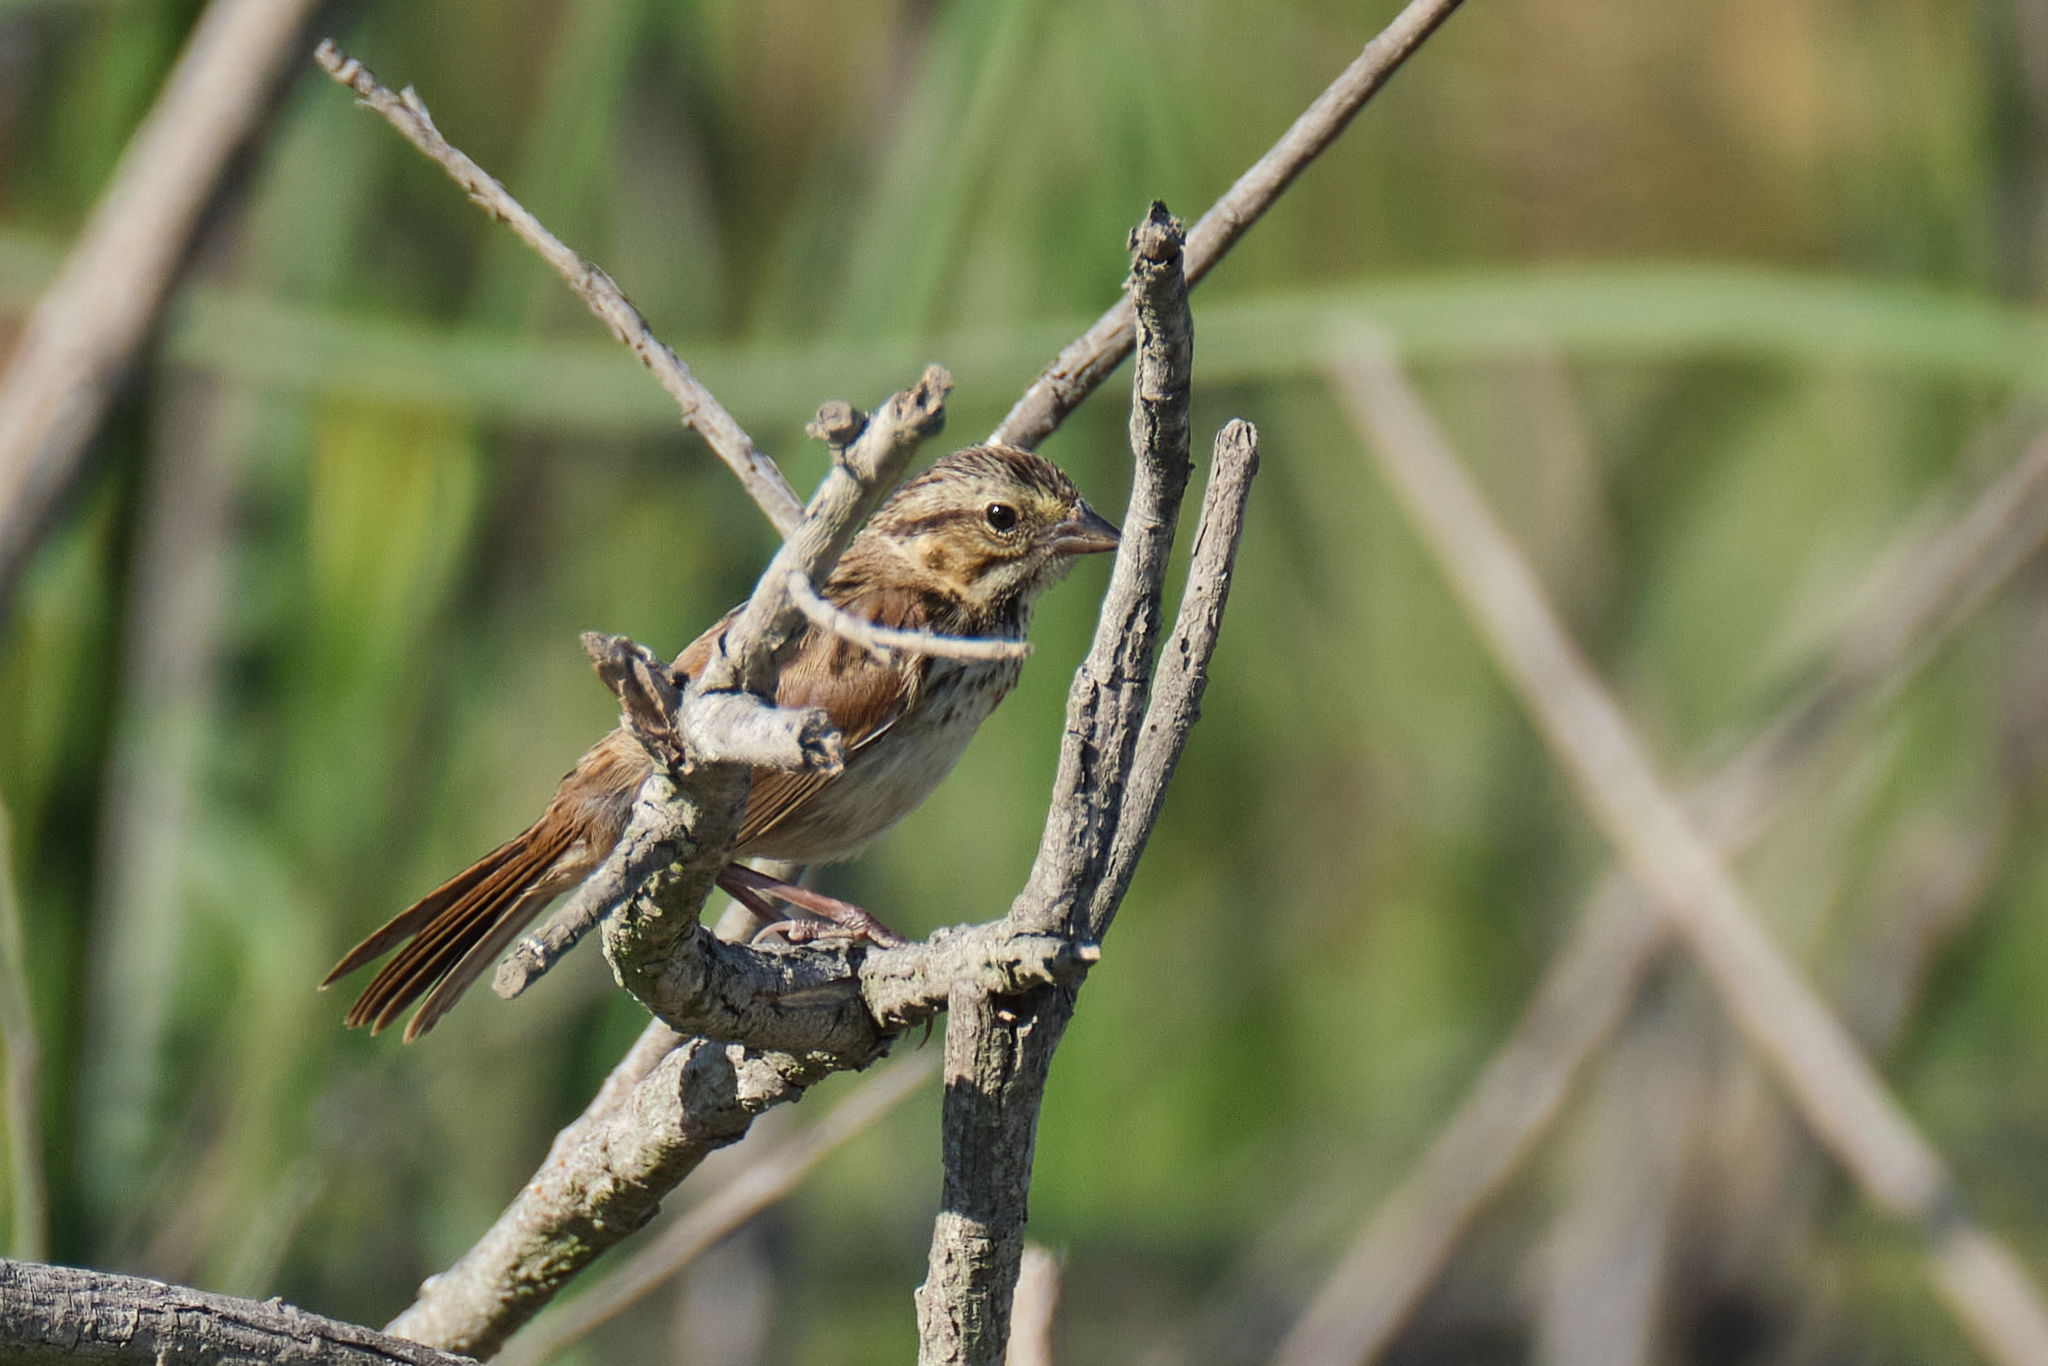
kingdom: Animalia
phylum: Chordata
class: Aves
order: Passeriformes
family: Passerellidae
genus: Melospiza
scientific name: Melospiza melodia
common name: Song sparrow
